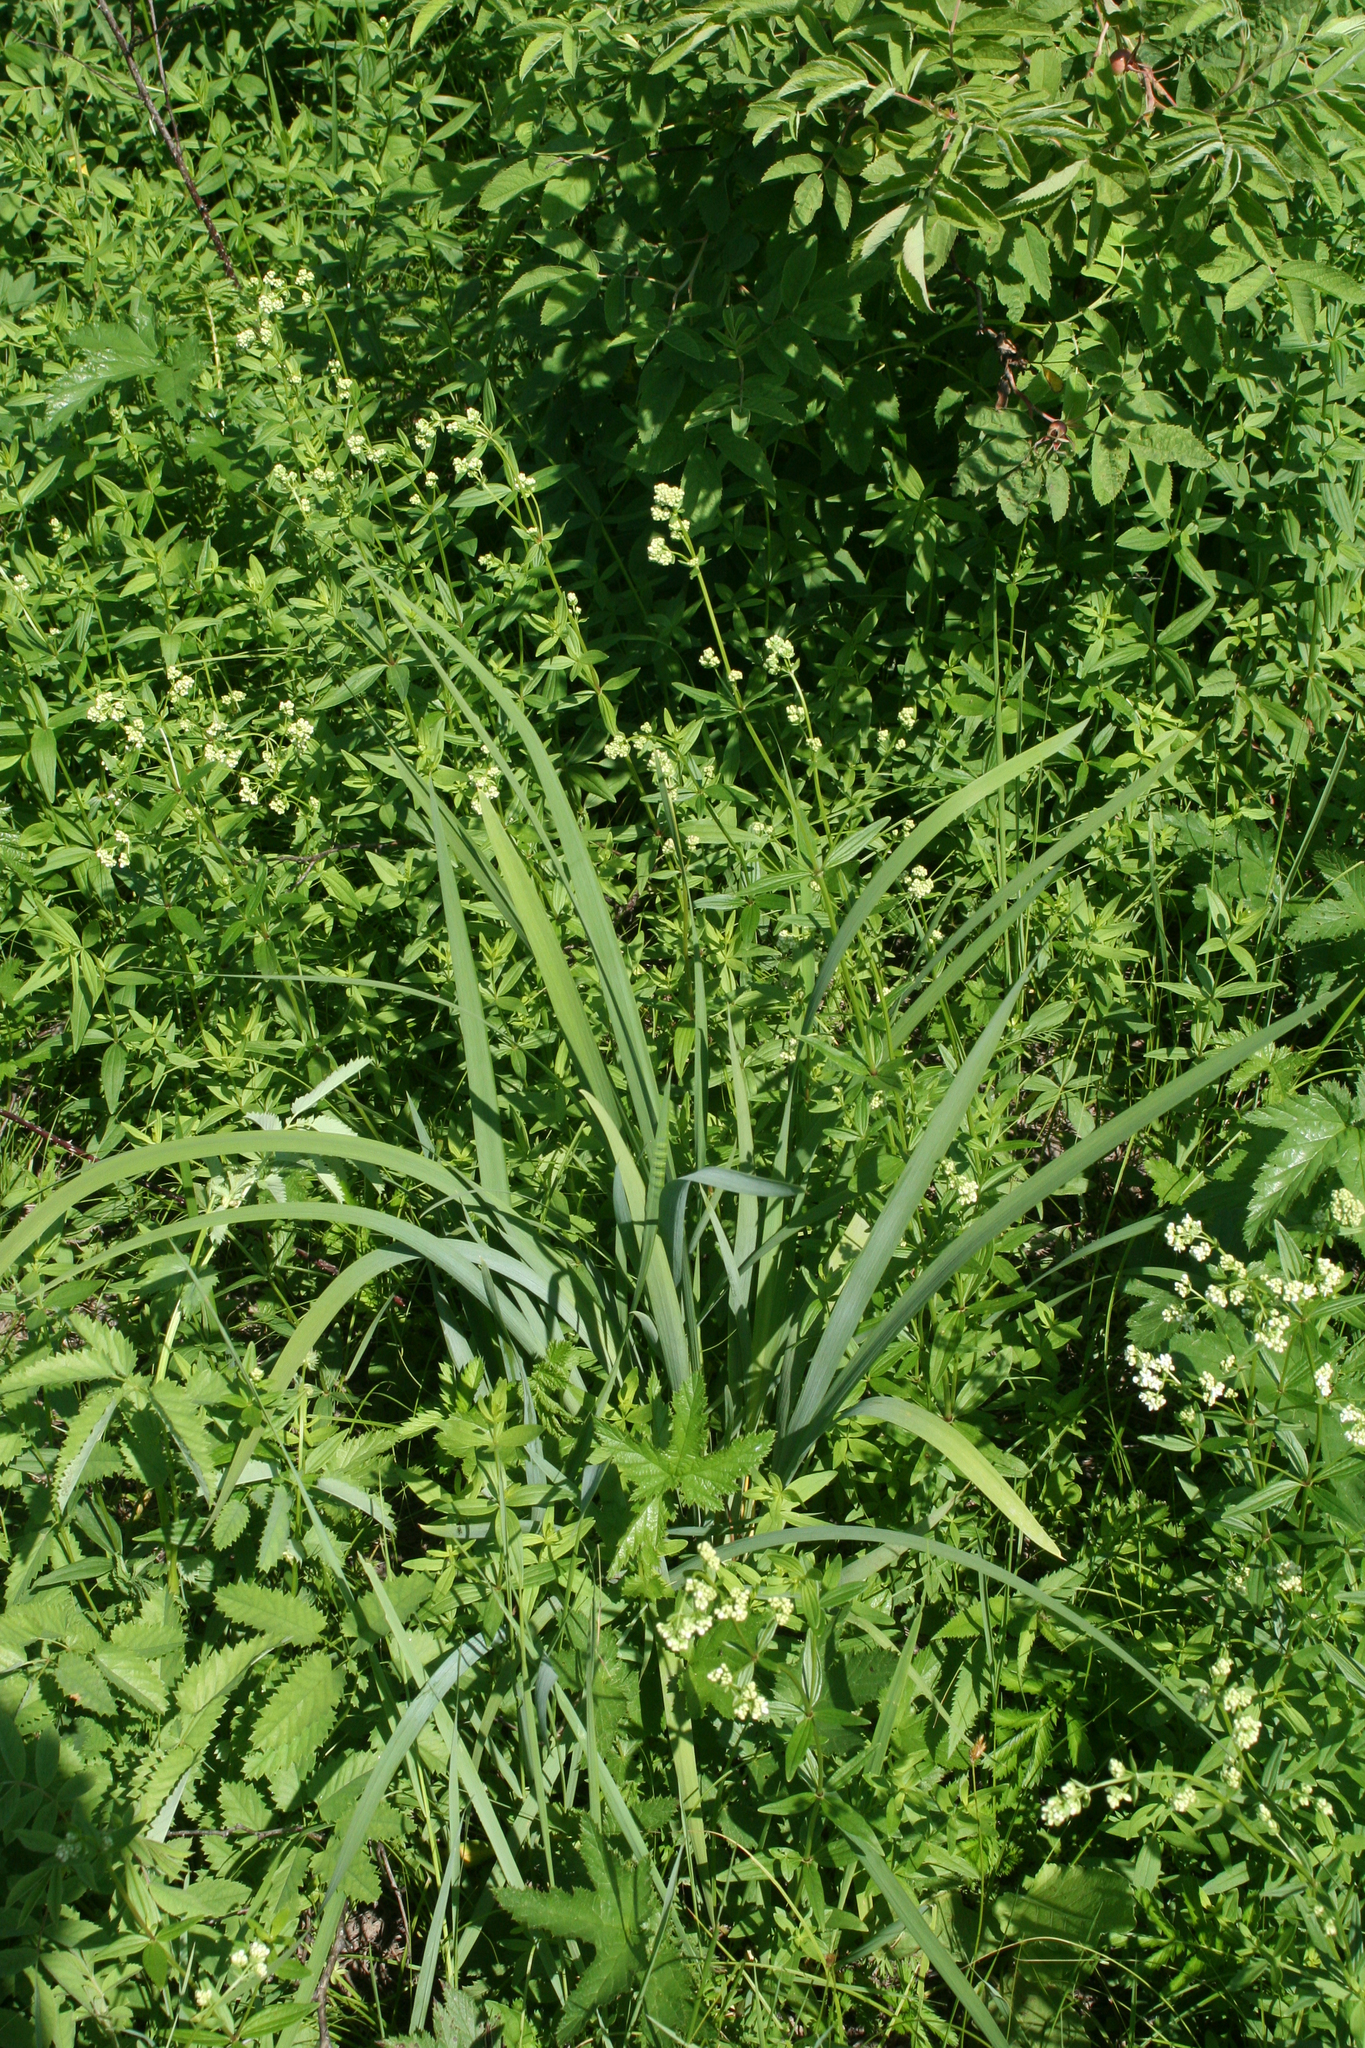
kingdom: Plantae
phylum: Tracheophyta
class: Liliopsida
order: Asparagales
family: Iridaceae
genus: Iris
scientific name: Iris sibirica
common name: Siberian iris
